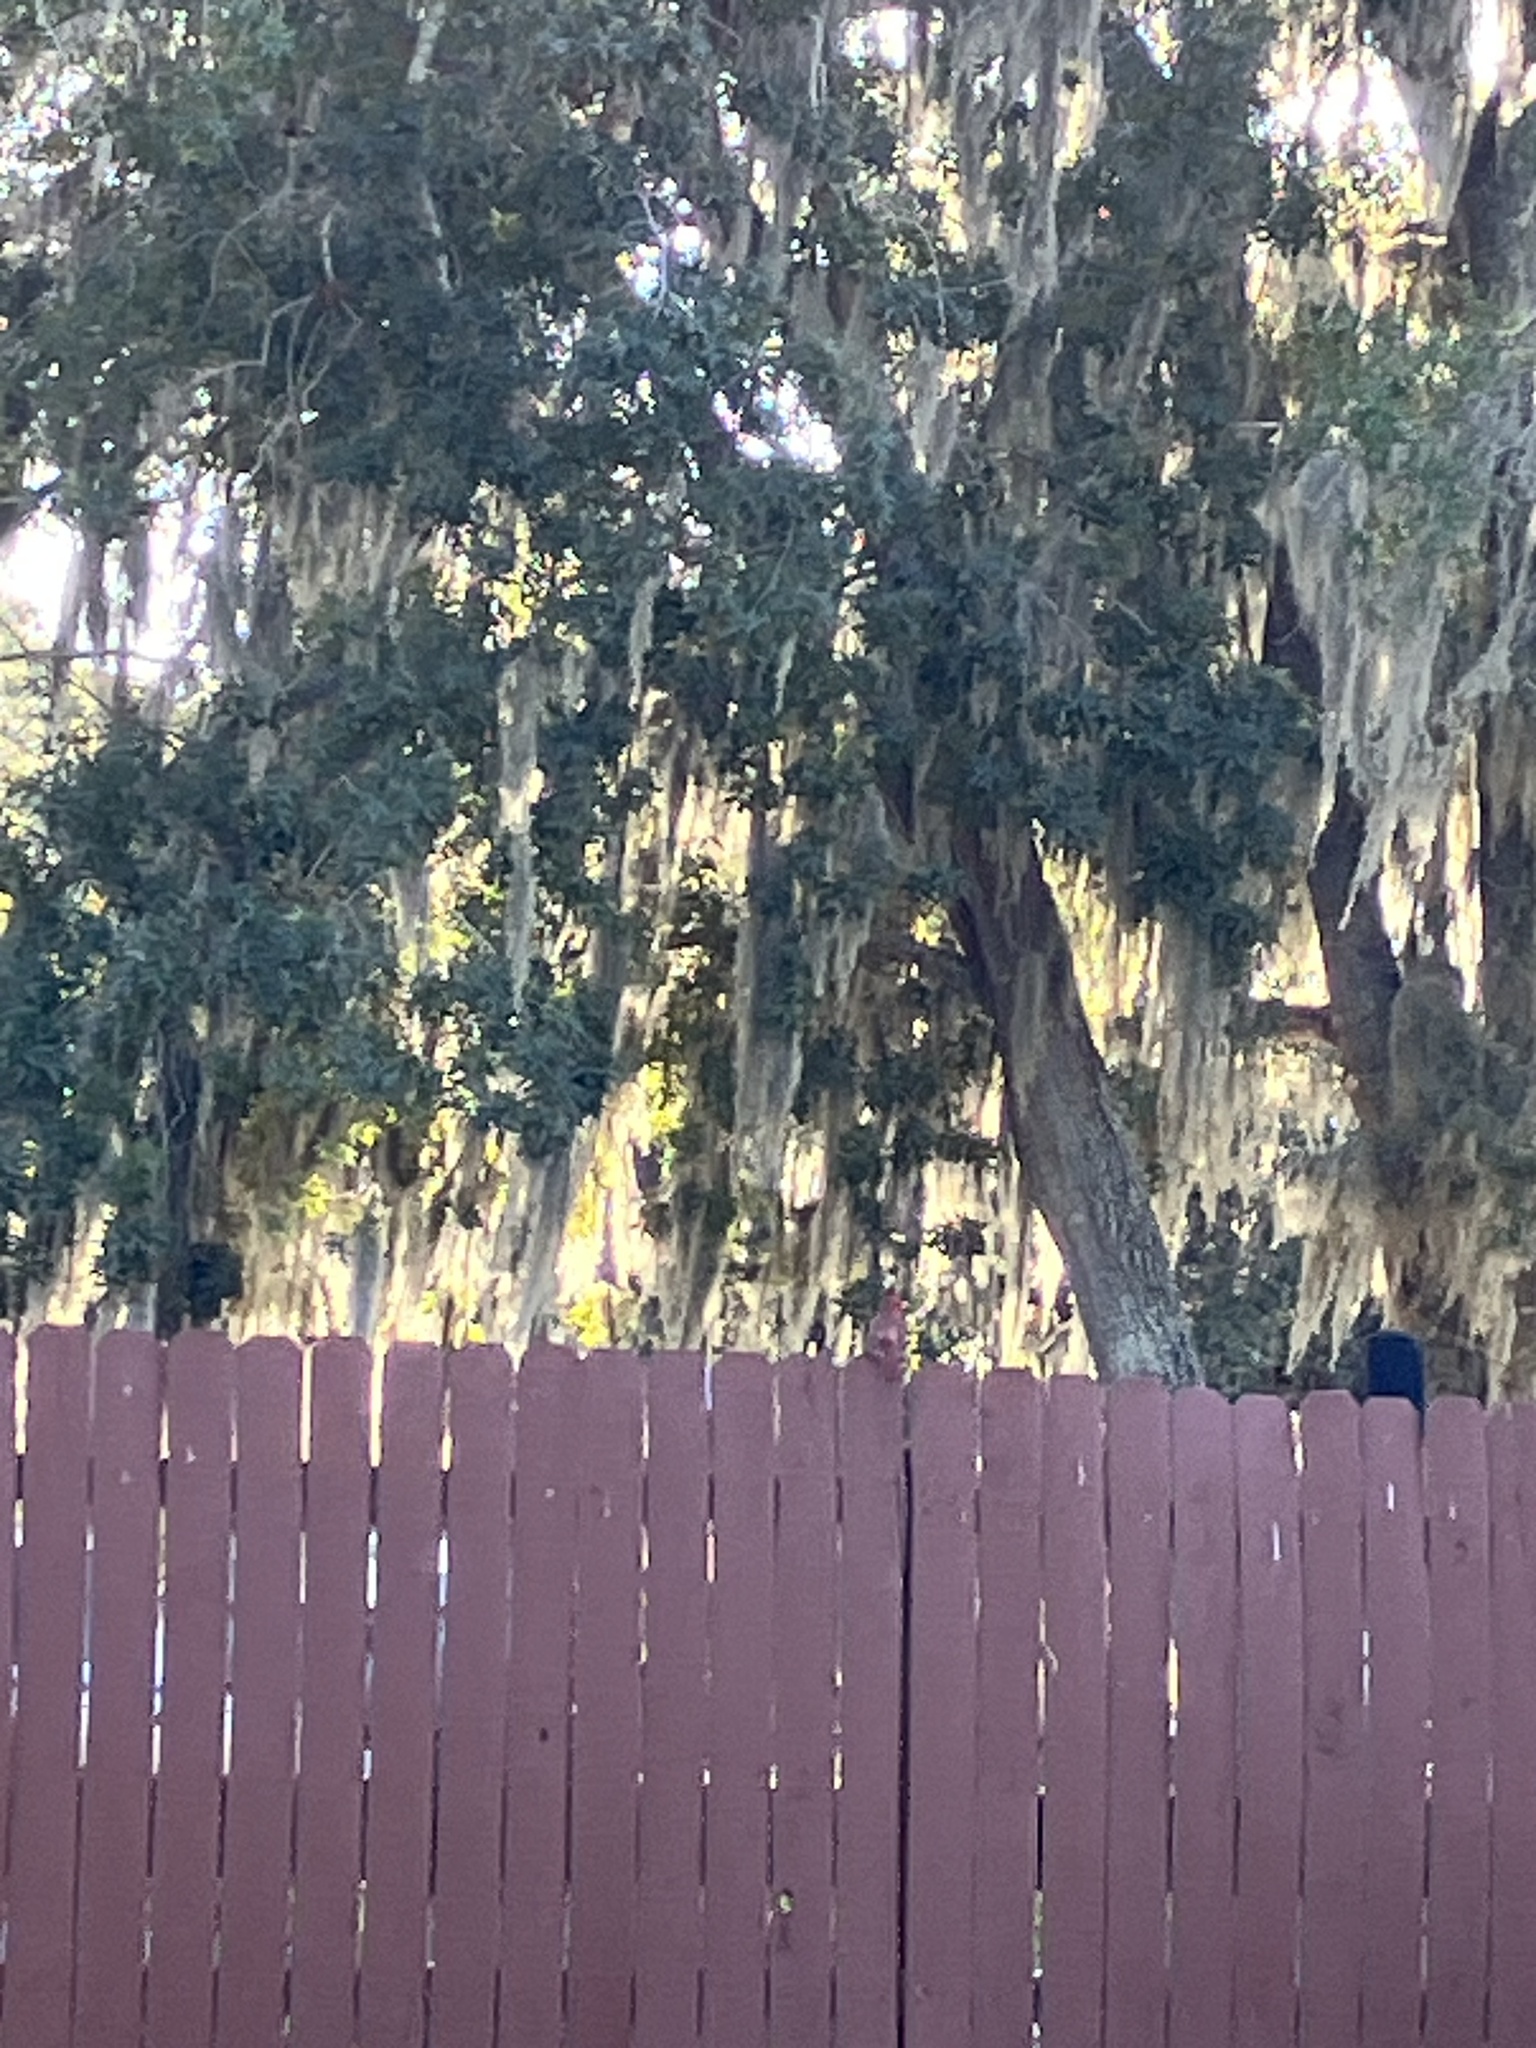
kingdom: Plantae
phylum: Tracheophyta
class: Liliopsida
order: Poales
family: Bromeliaceae
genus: Tillandsia
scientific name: Tillandsia usneoides
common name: Spanish moss
